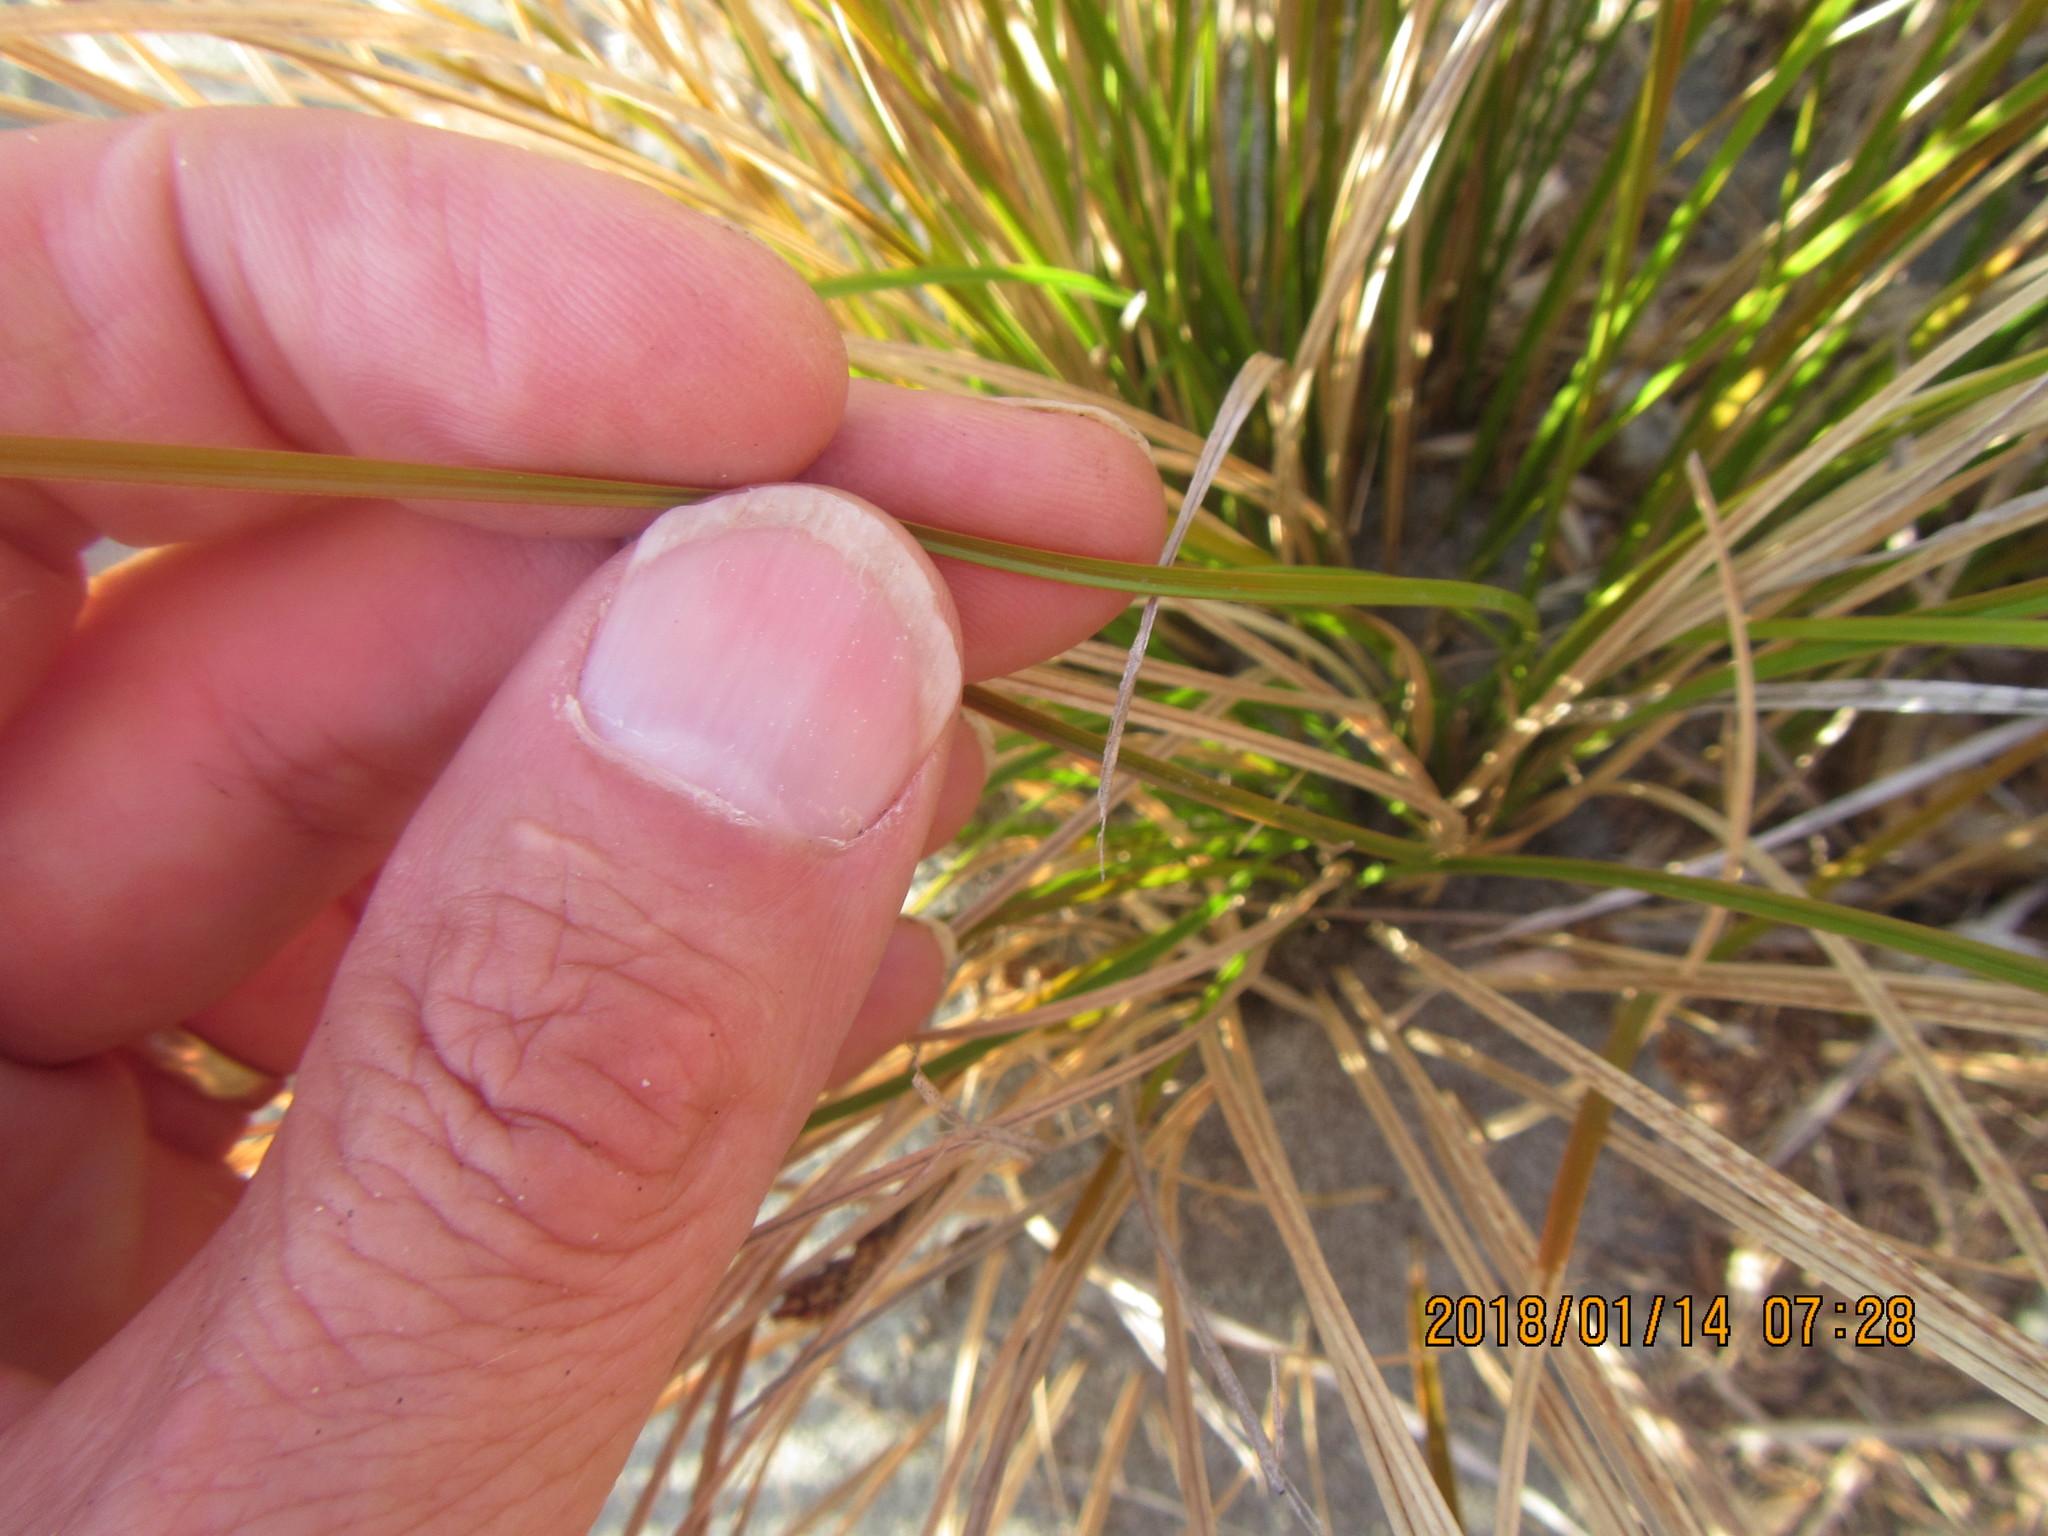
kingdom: Plantae
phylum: Tracheophyta
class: Liliopsida
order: Poales
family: Cyperaceae
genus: Carex
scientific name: Carex testacea
